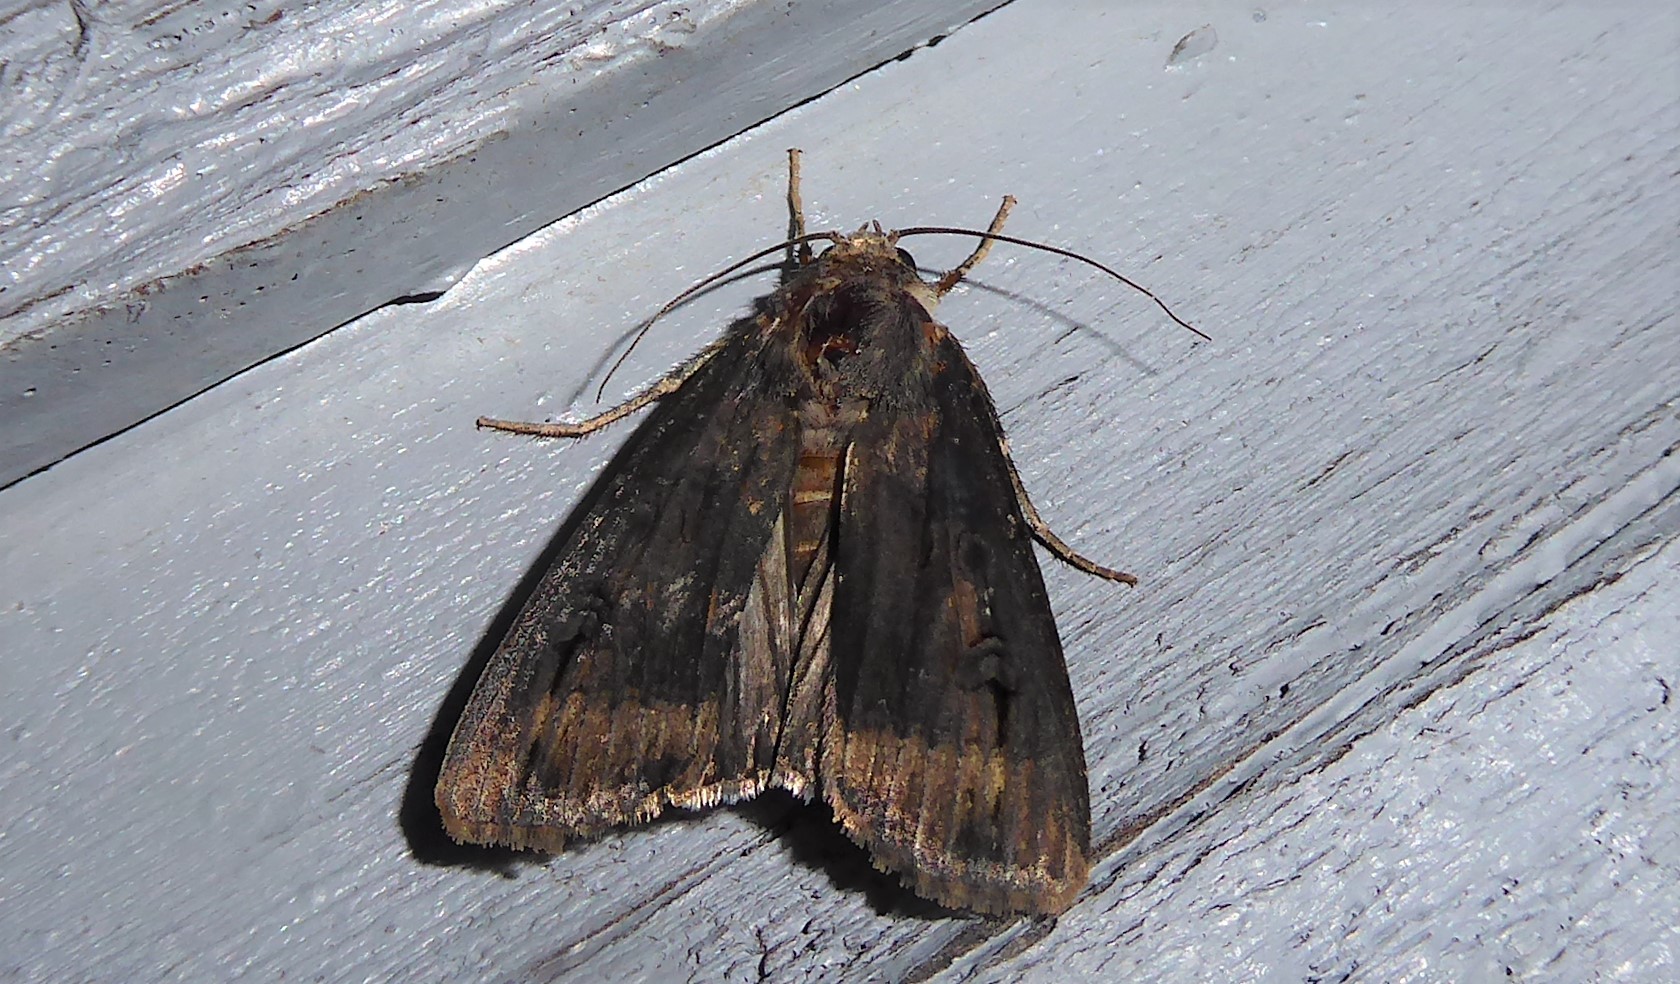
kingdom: Animalia
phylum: Arthropoda
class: Insecta
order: Lepidoptera
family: Noctuidae
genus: Agrotis
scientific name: Agrotis ipsilon
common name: Dark sword-grass
